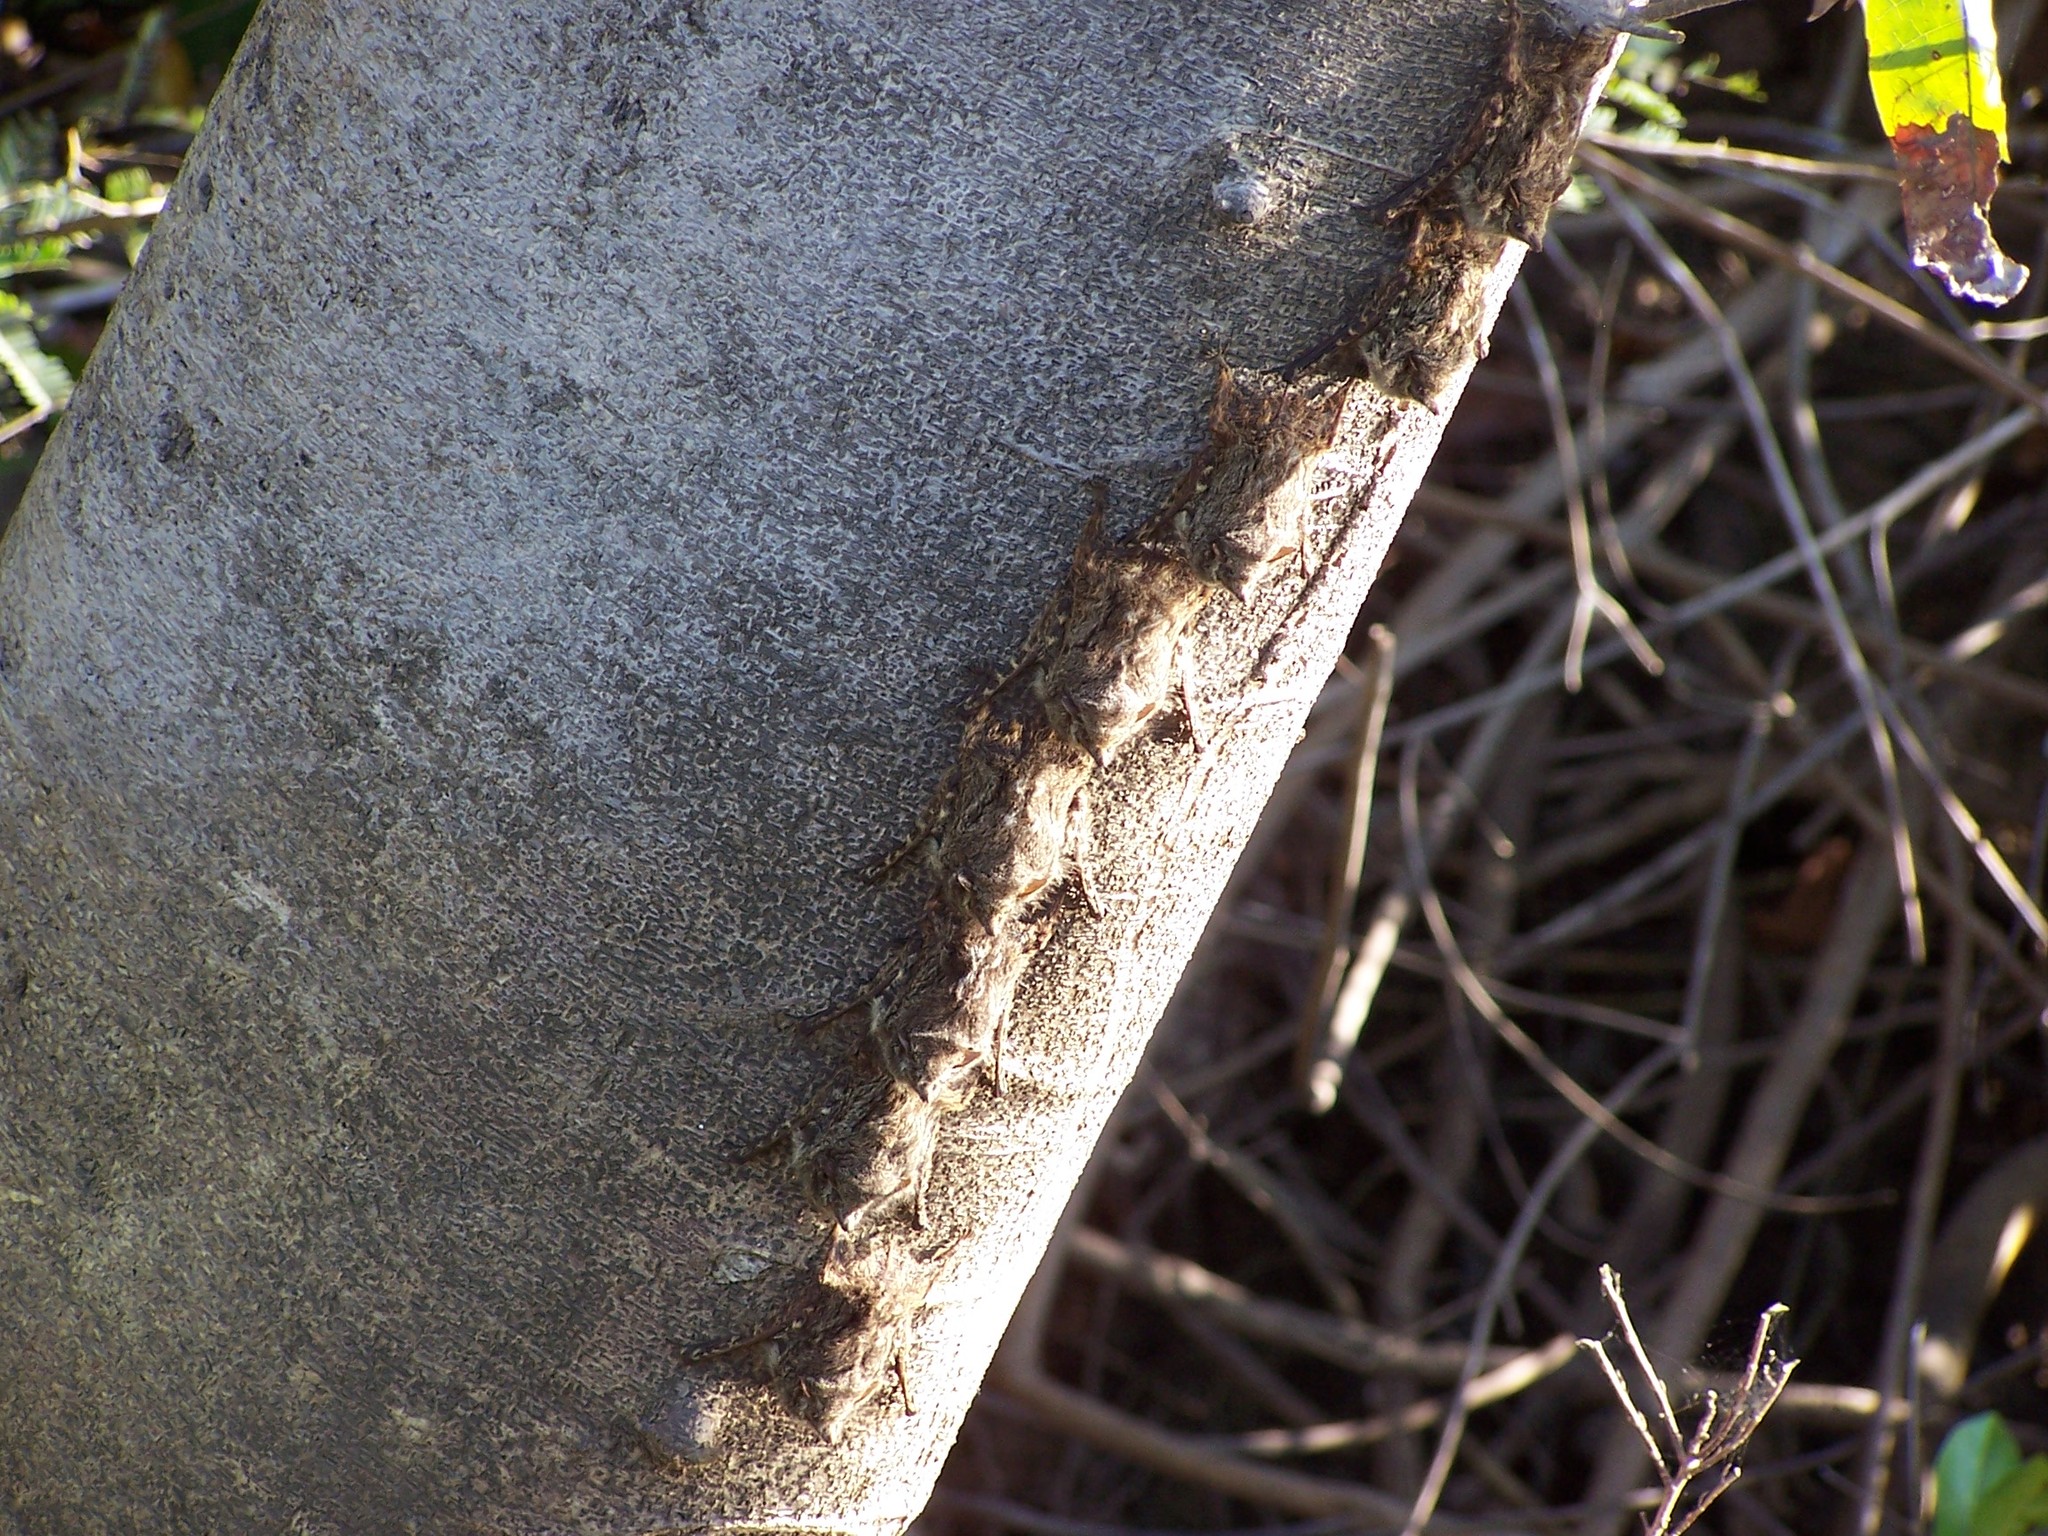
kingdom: Animalia
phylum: Chordata
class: Mammalia
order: Chiroptera
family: Emballonuridae
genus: Rhynchonycteris
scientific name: Rhynchonycteris naso
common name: Proboscis bat
